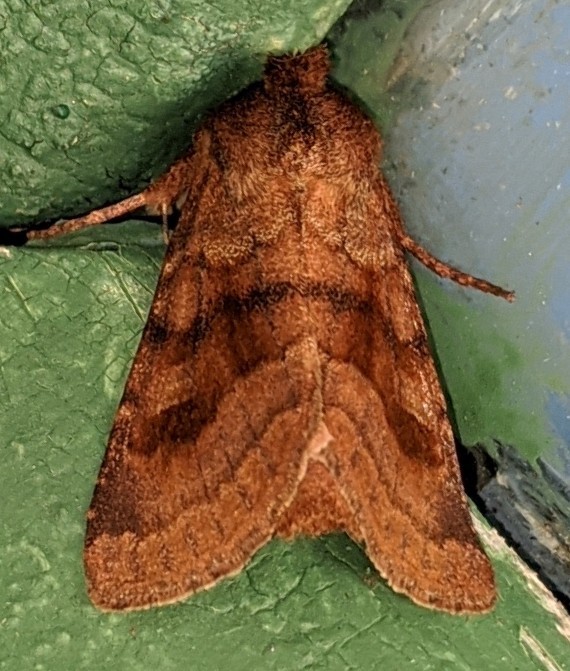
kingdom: Animalia
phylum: Arthropoda
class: Insecta
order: Lepidoptera
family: Noctuidae
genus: Nephelodes
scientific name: Nephelodes minians
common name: Bronzed cutworm
